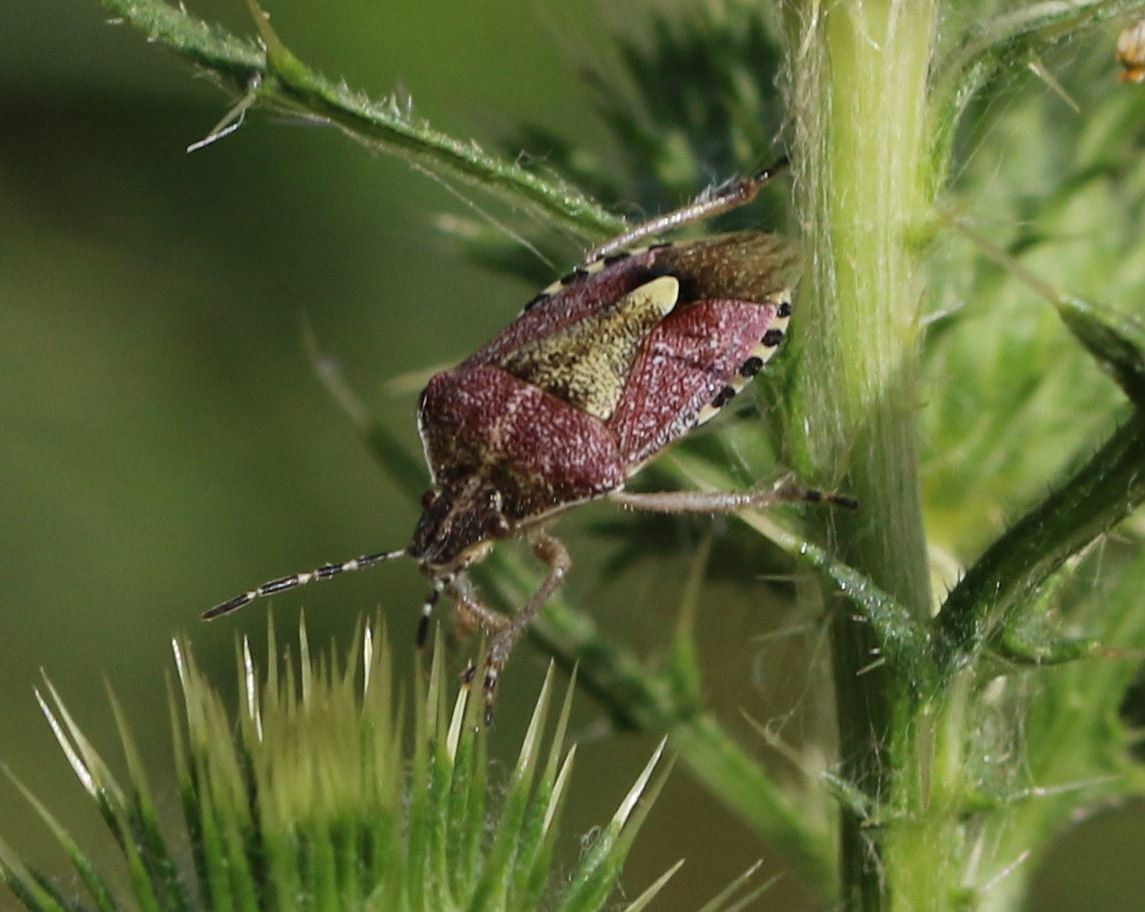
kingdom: Animalia
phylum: Arthropoda
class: Insecta
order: Hemiptera
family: Pentatomidae
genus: Dolycoris
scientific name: Dolycoris baccarum
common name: Sloe bug
